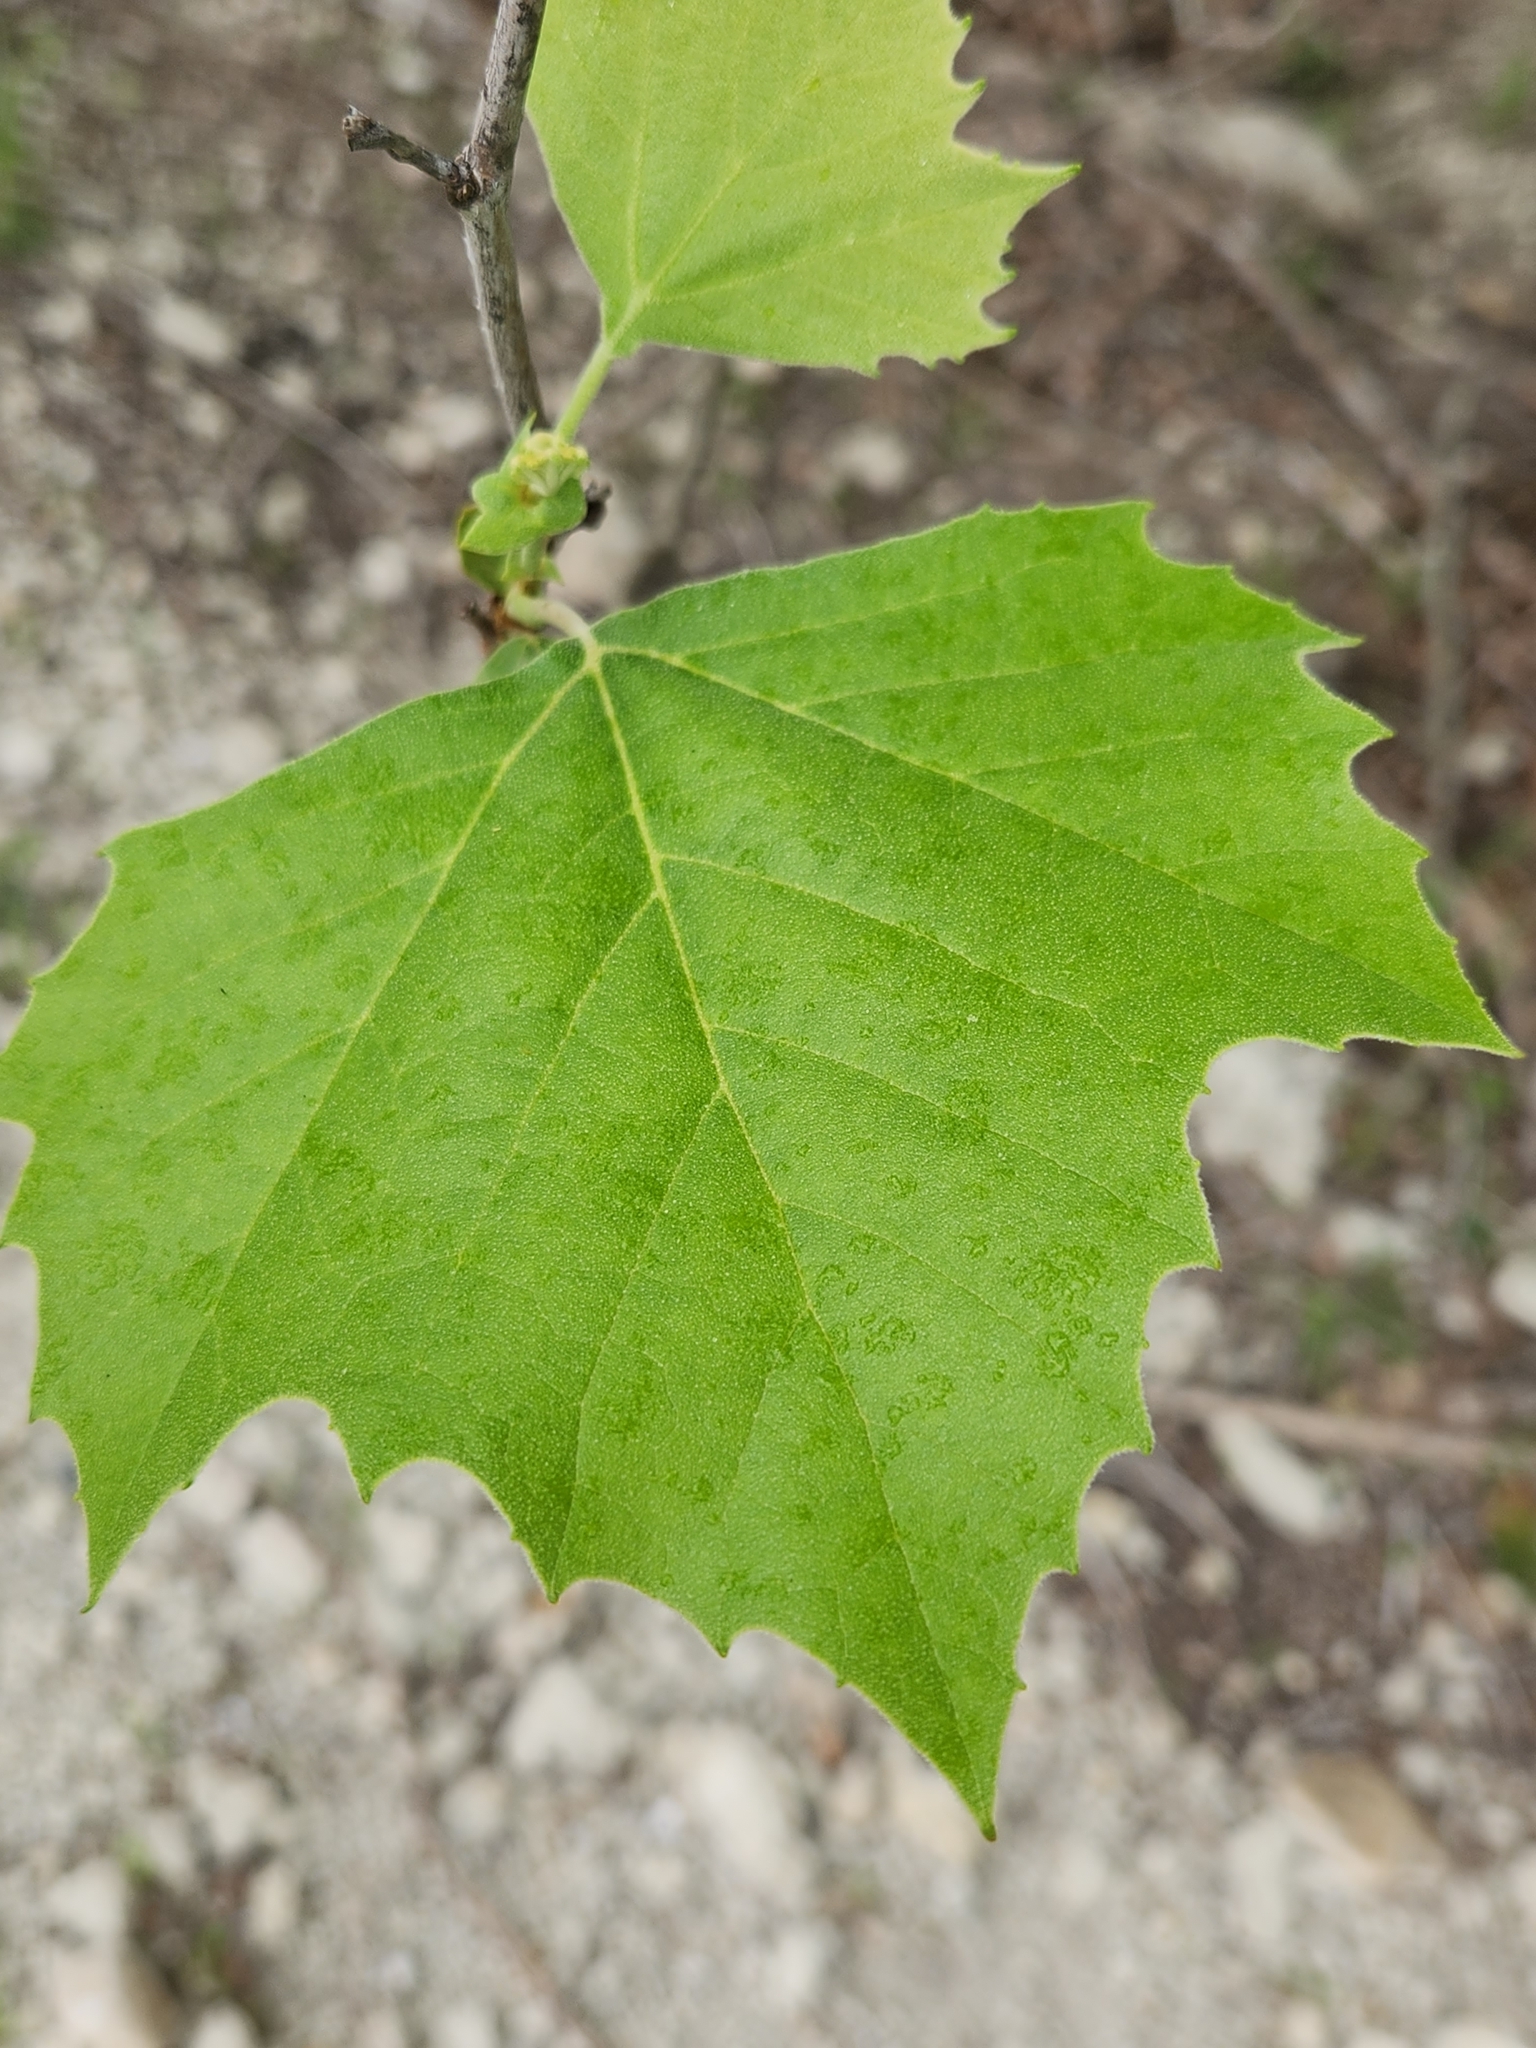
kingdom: Plantae
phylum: Tracheophyta
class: Magnoliopsida
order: Proteales
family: Platanaceae
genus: Platanus
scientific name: Platanus occidentalis
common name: American sycamore
